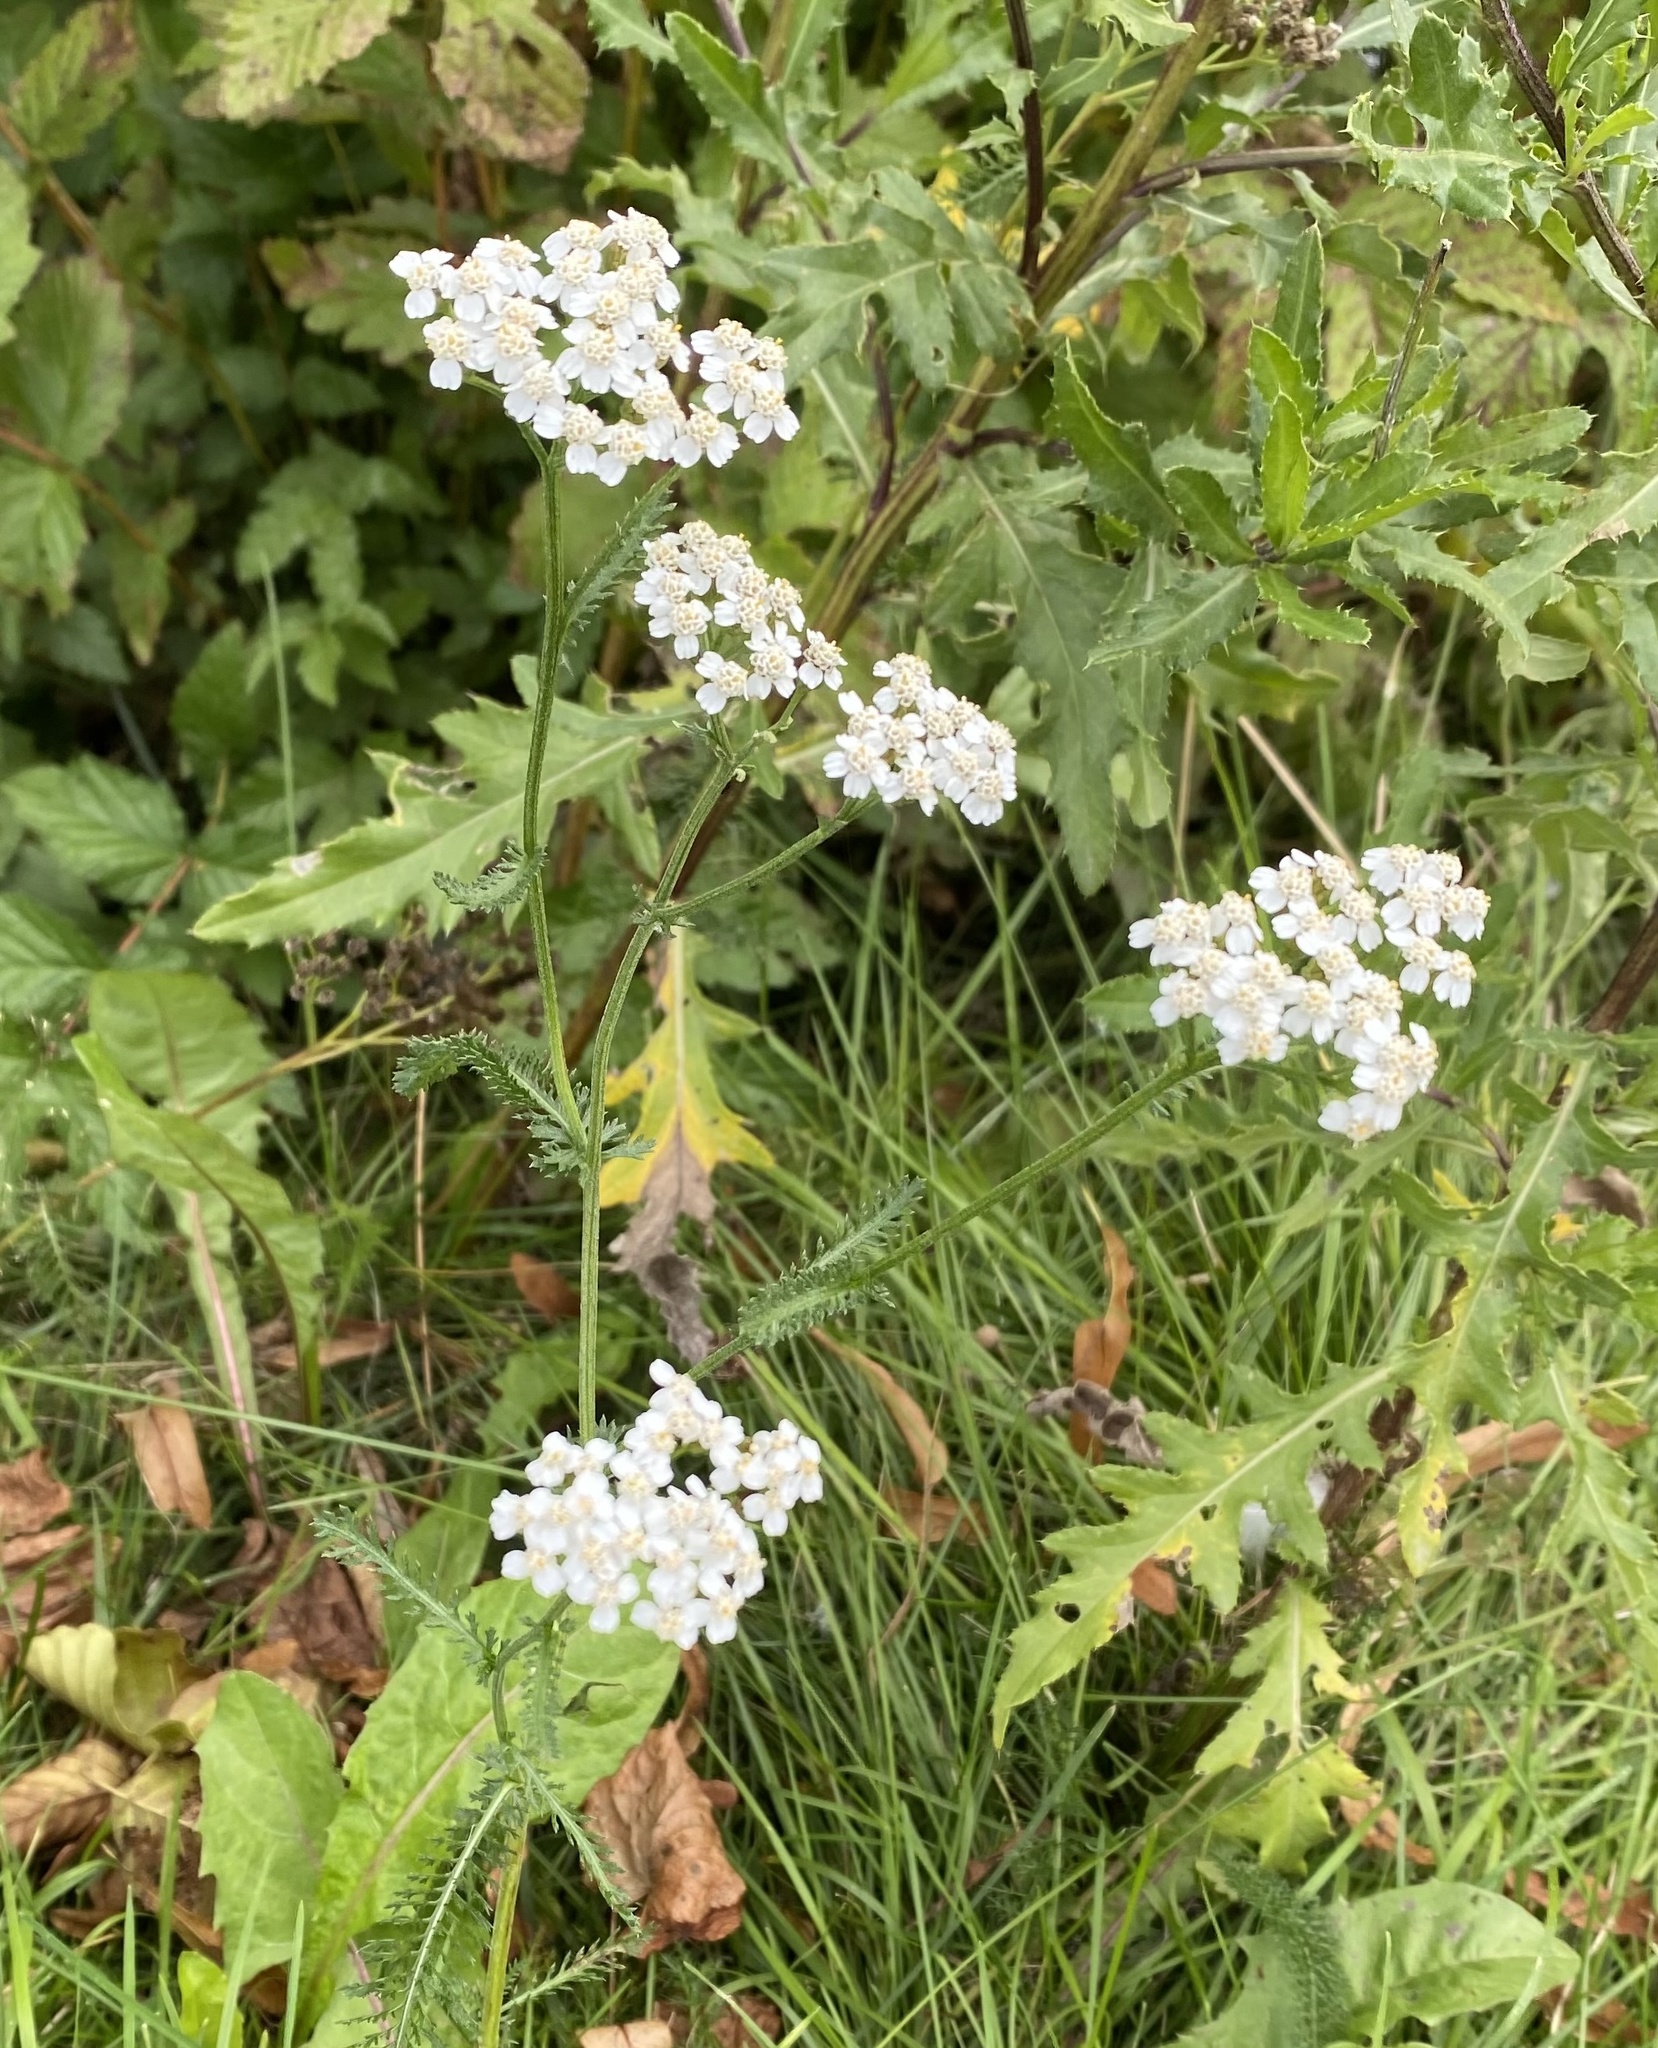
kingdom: Plantae
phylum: Tracheophyta
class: Magnoliopsida
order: Asterales
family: Asteraceae
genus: Achillea
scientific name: Achillea millefolium
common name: Yarrow
